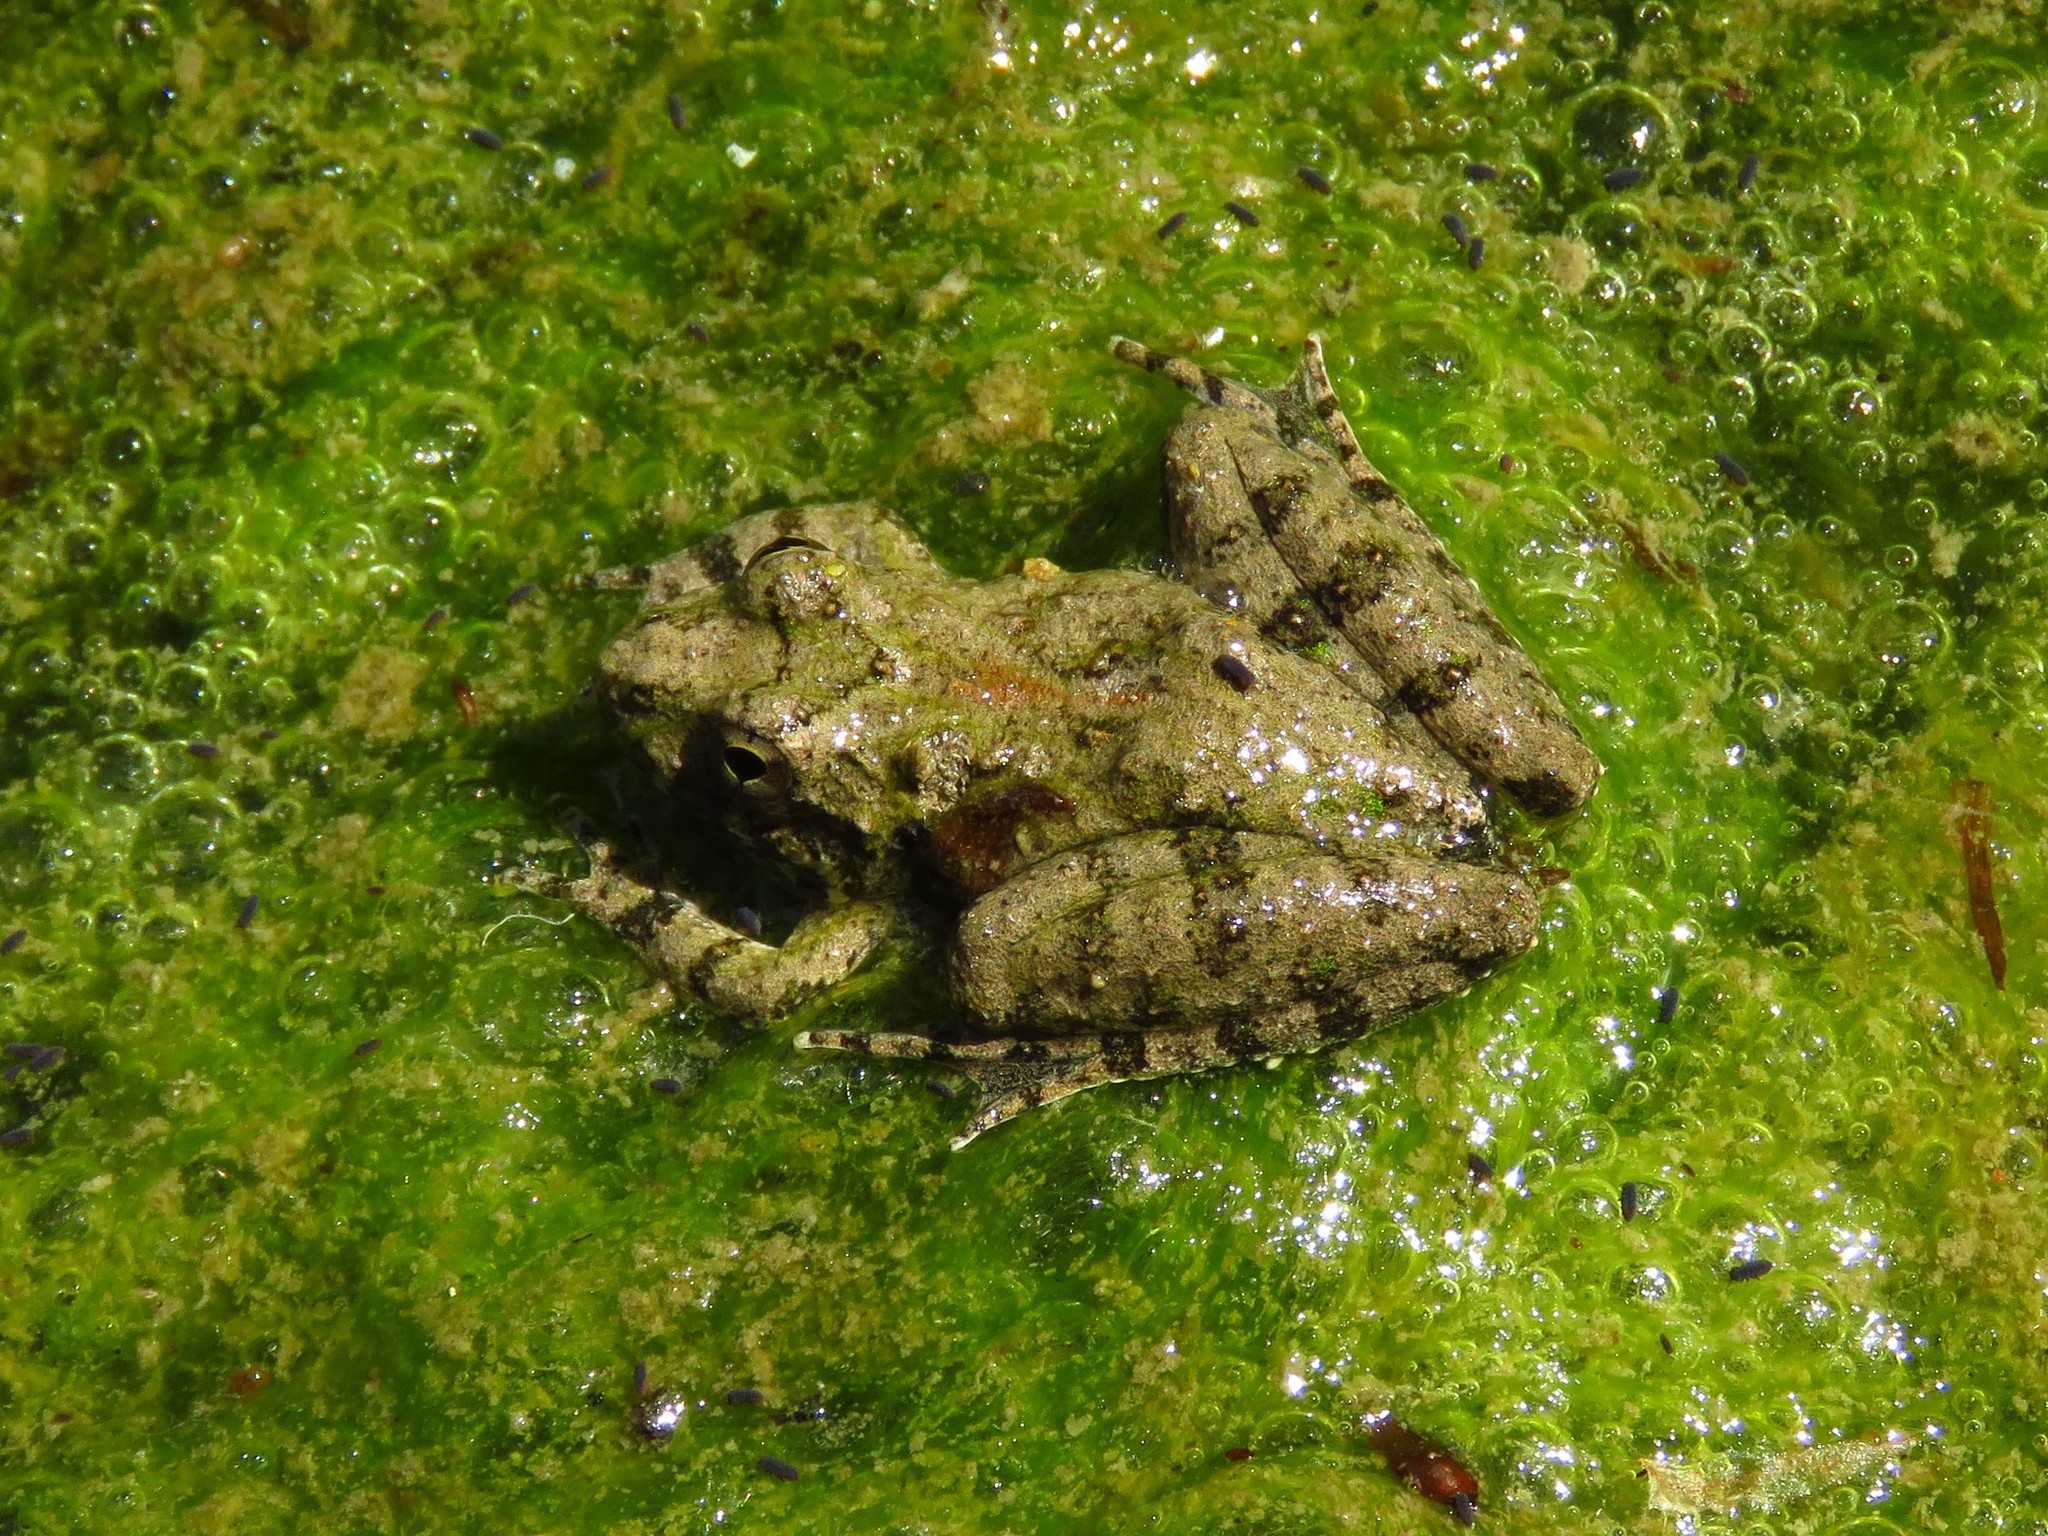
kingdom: Animalia
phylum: Chordata
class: Amphibia
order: Anura
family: Hylidae
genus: Acris
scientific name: Acris blanchardi
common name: Blanchard's cricket frog
